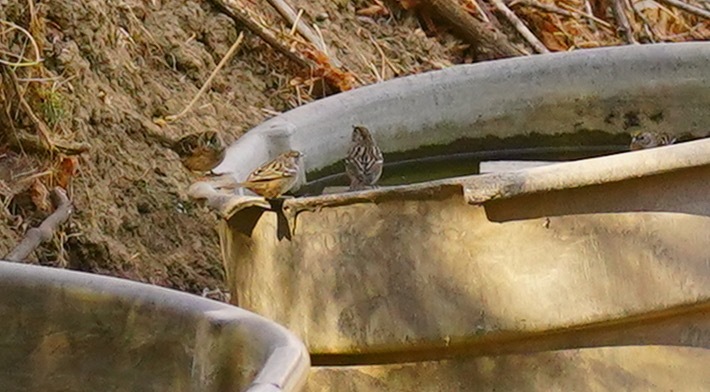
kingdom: Animalia
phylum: Chordata
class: Aves
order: Passeriformes
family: Passerellidae
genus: Zonotrichia
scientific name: Zonotrichia atricapilla
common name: Golden-crowned sparrow
